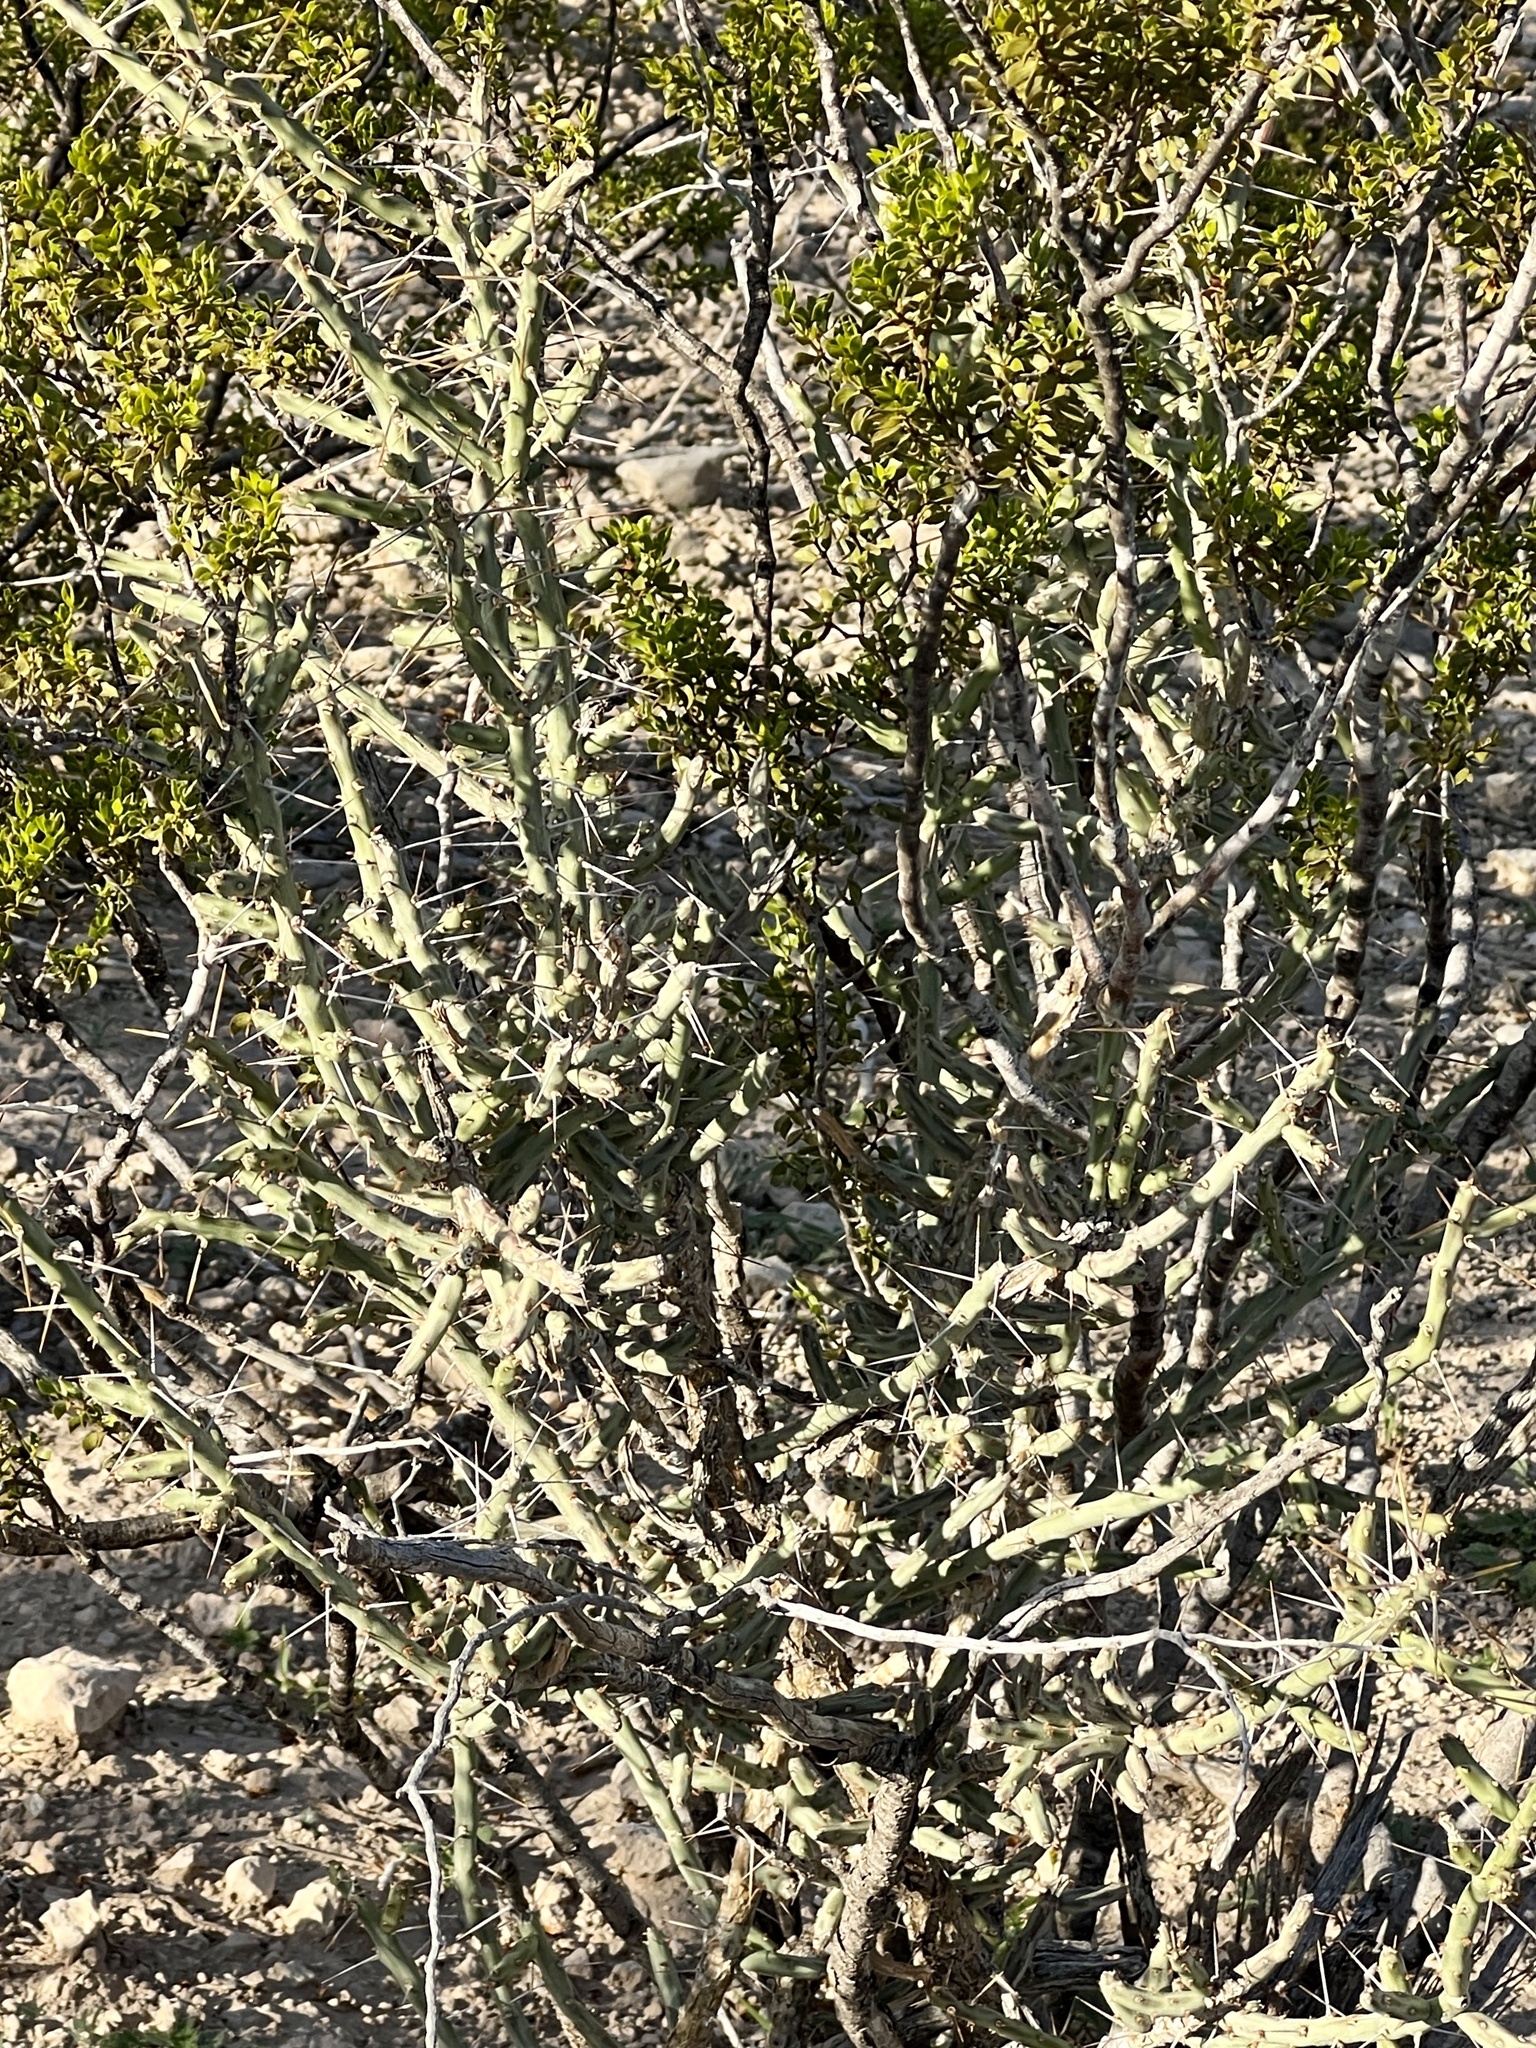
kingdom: Plantae
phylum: Tracheophyta
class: Magnoliopsida
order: Caryophyllales
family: Cactaceae
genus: Cylindropuntia
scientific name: Cylindropuntia leptocaulis
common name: Christmas cactus
